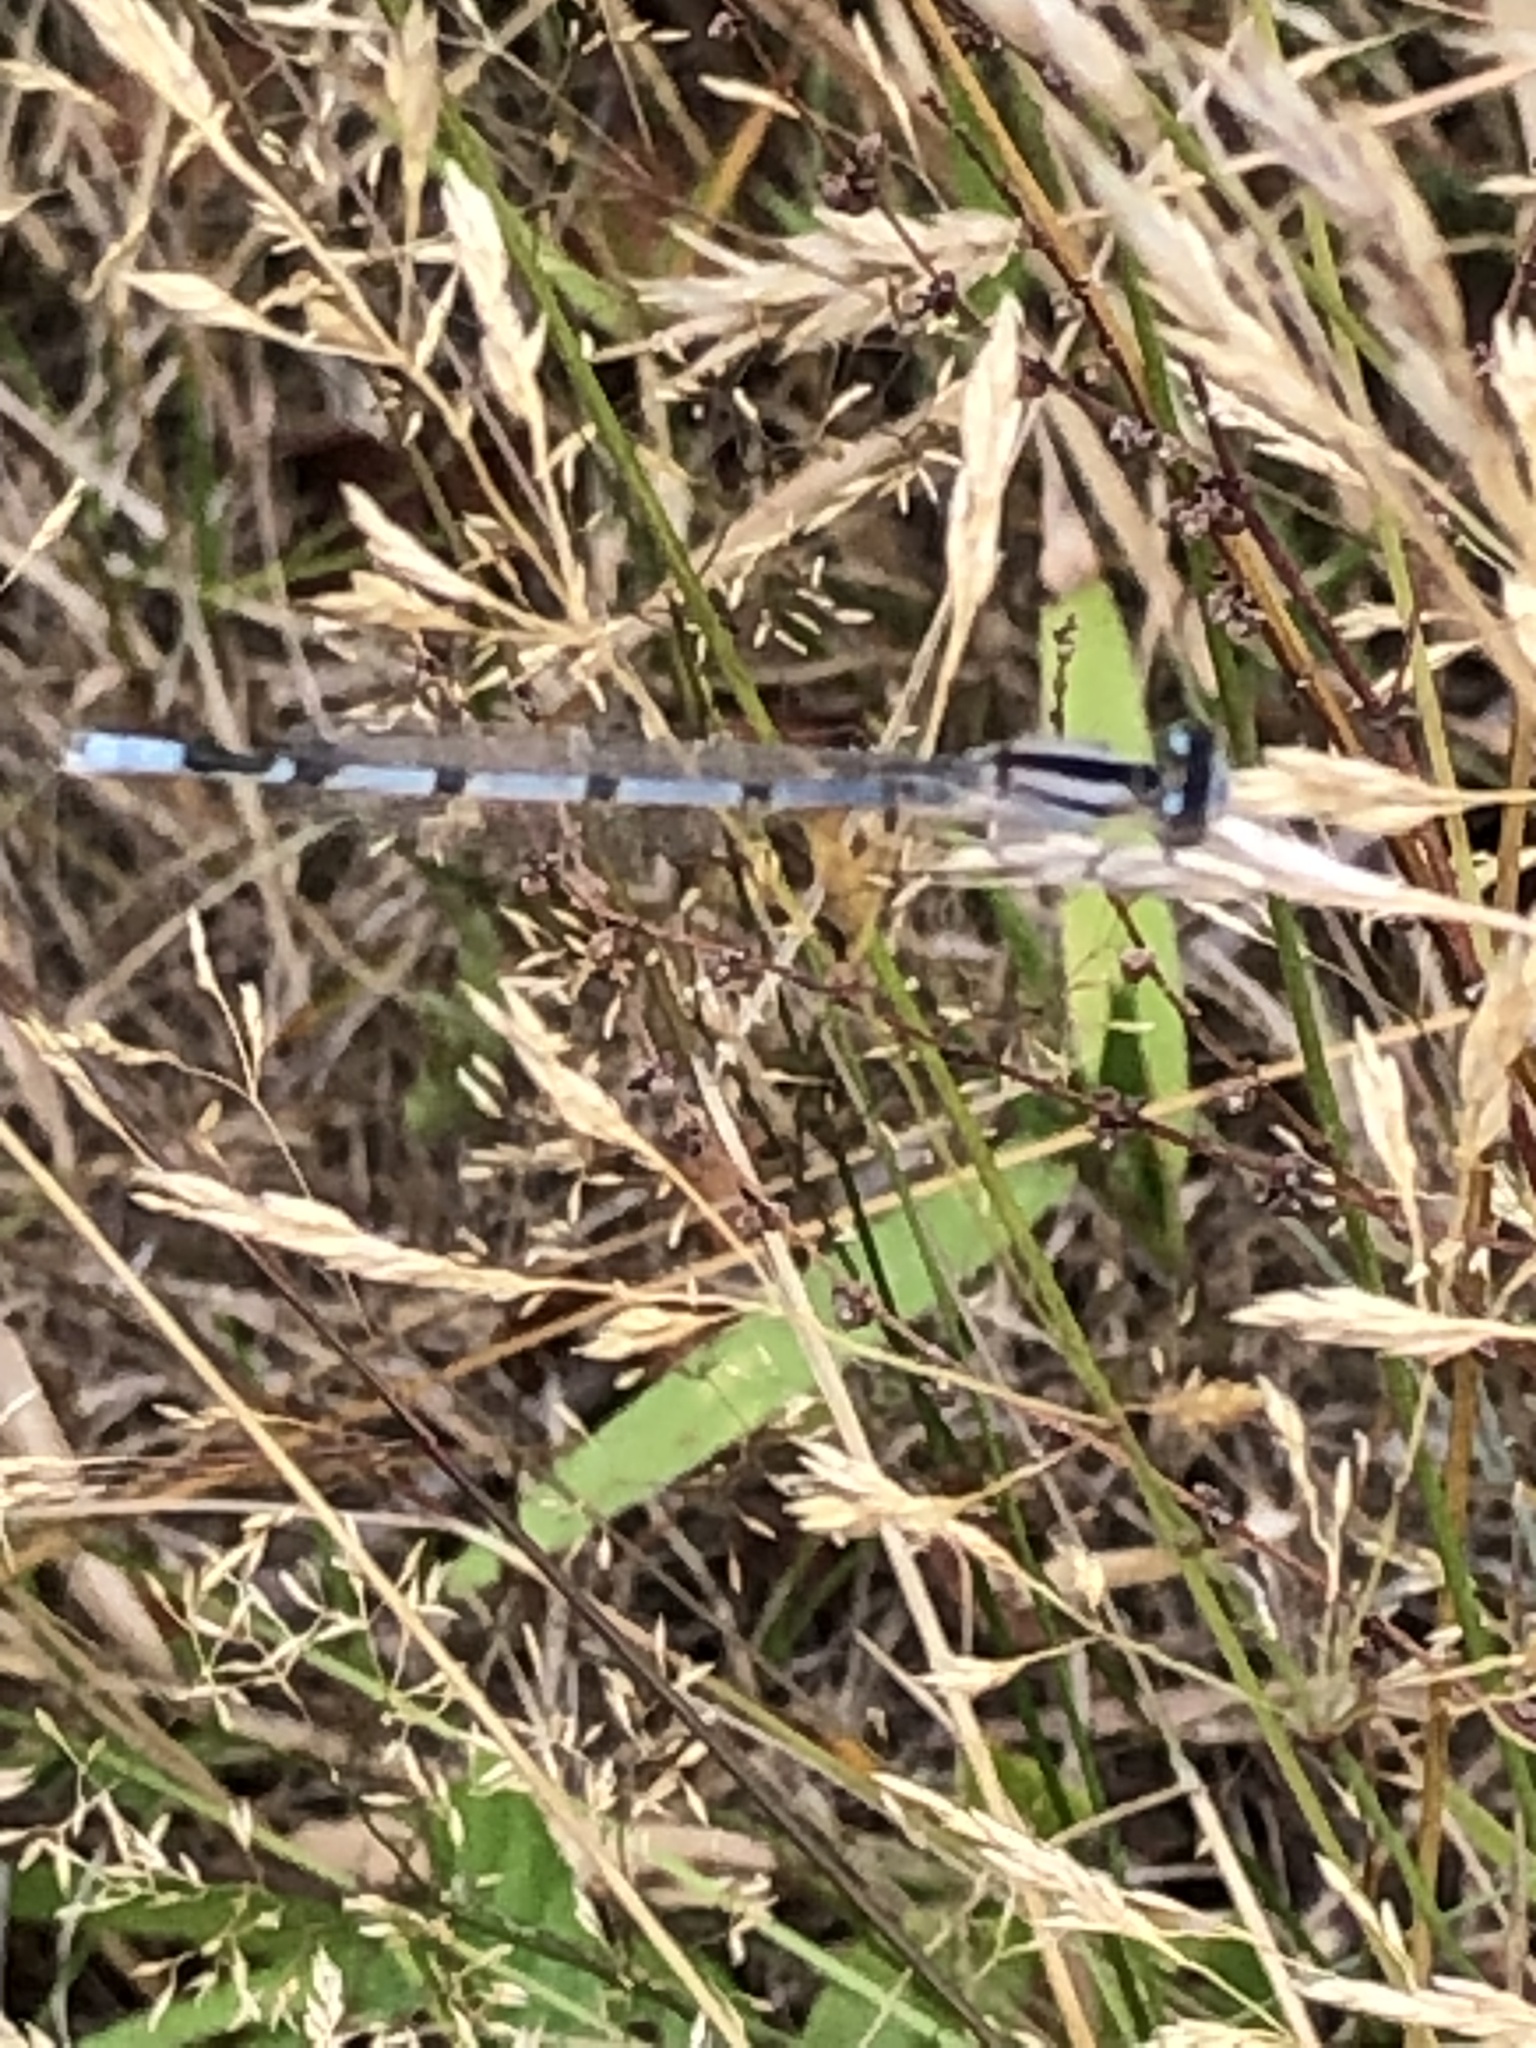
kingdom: Animalia
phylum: Arthropoda
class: Insecta
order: Odonata
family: Coenagrionidae
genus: Enallagma
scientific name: Enallagma civile
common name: Damselfly
